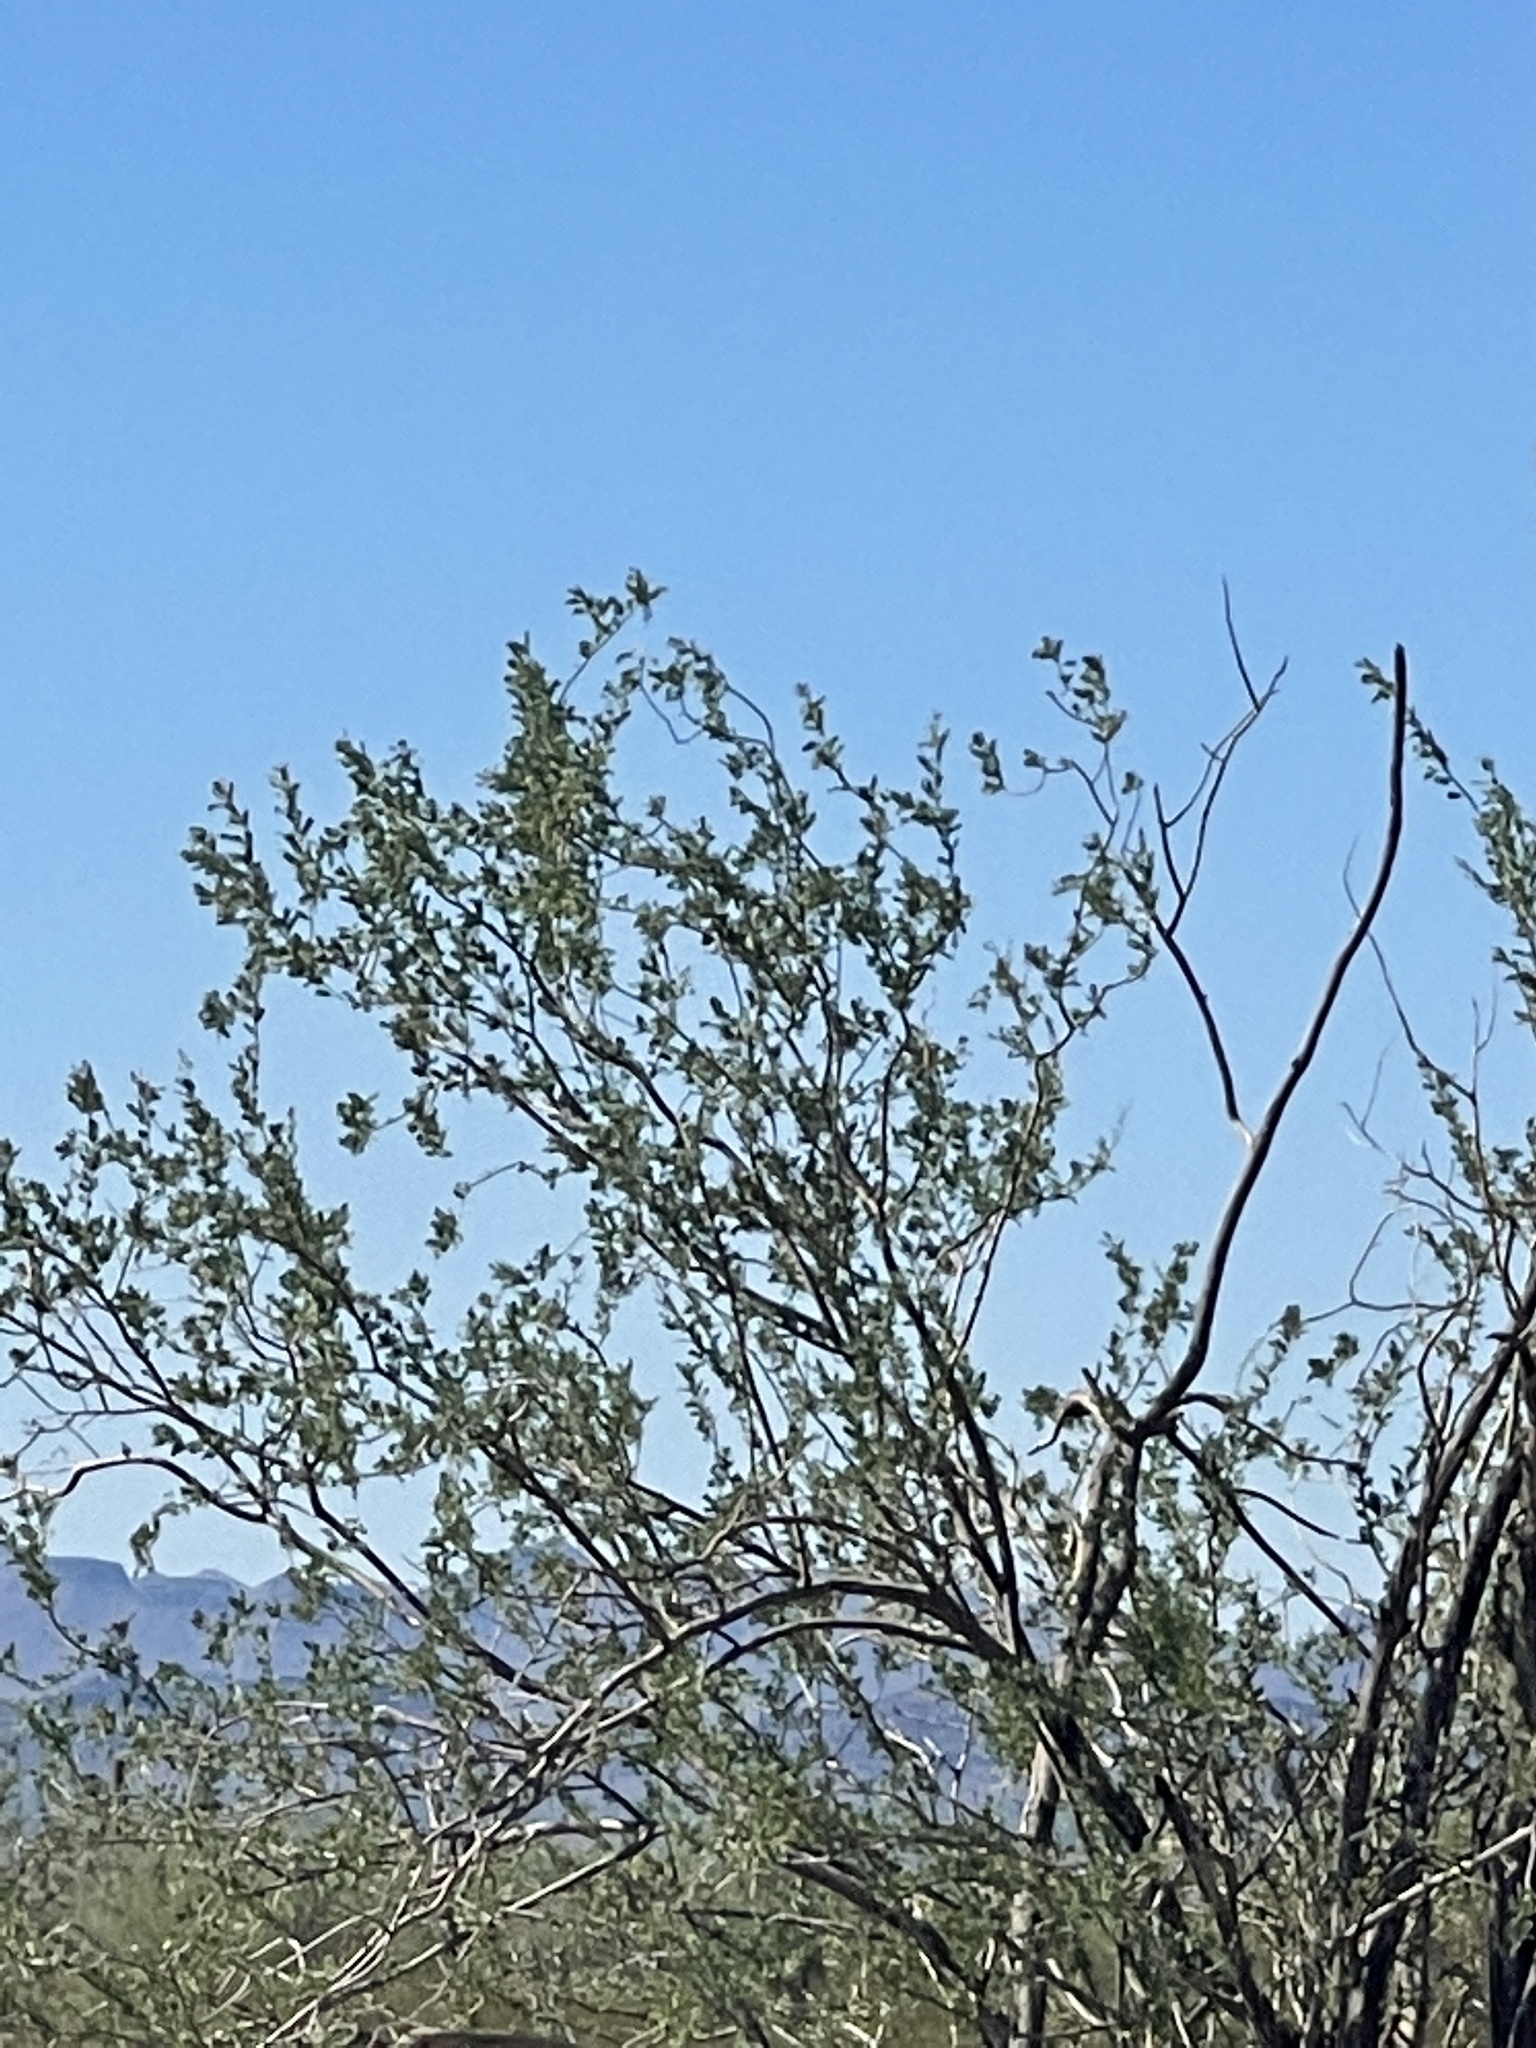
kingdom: Plantae
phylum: Tracheophyta
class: Magnoliopsida
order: Fabales
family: Fabaceae
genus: Olneya
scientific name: Olneya tesota
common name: Desert ironwood
